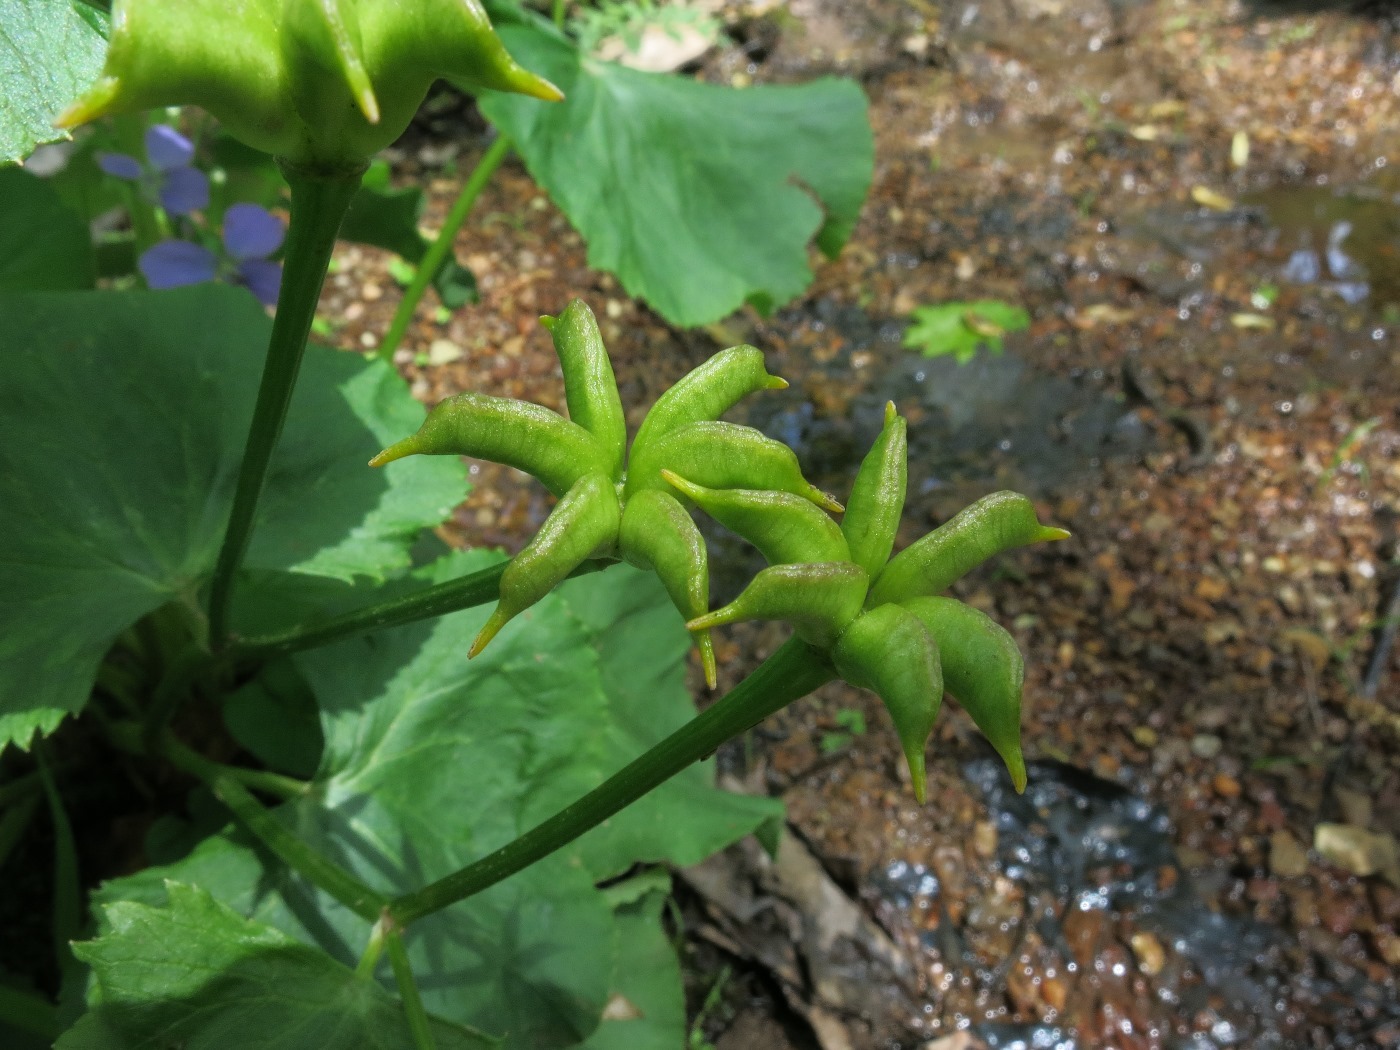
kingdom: Plantae
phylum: Tracheophyta
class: Magnoliopsida
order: Ranunculales
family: Ranunculaceae
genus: Caltha
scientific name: Caltha palustris
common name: Marsh marigold
